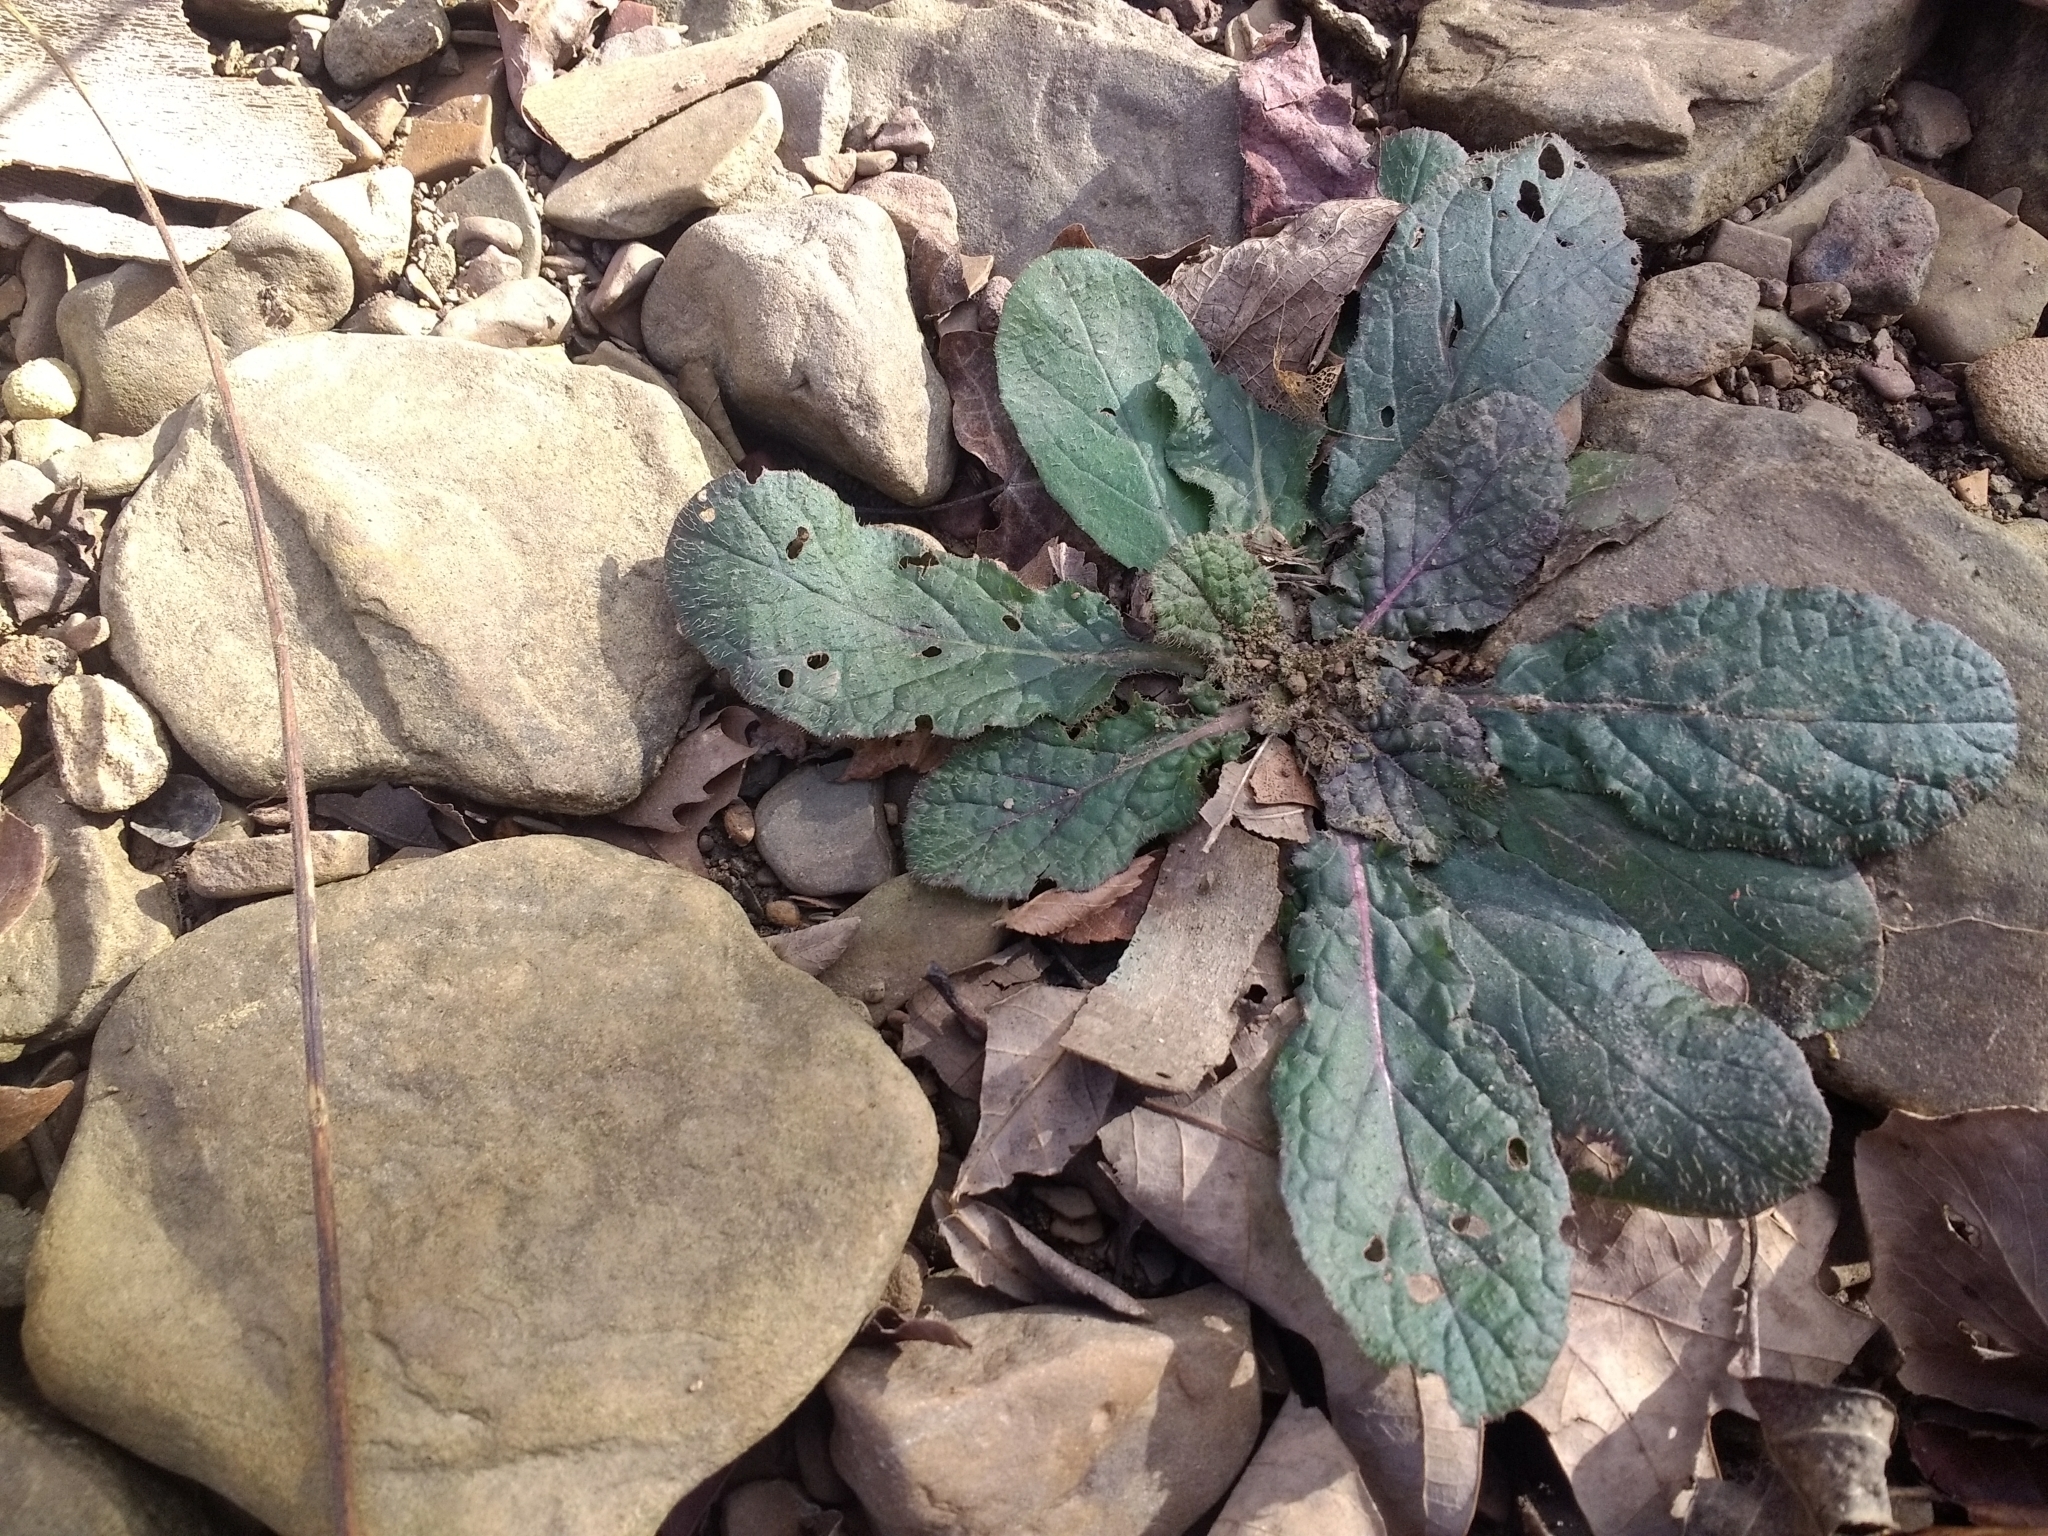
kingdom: Plantae
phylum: Tracheophyta
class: Magnoliopsida
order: Lamiales
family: Lamiaceae
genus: Salvia
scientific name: Salvia lyrata
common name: Cancerweed
